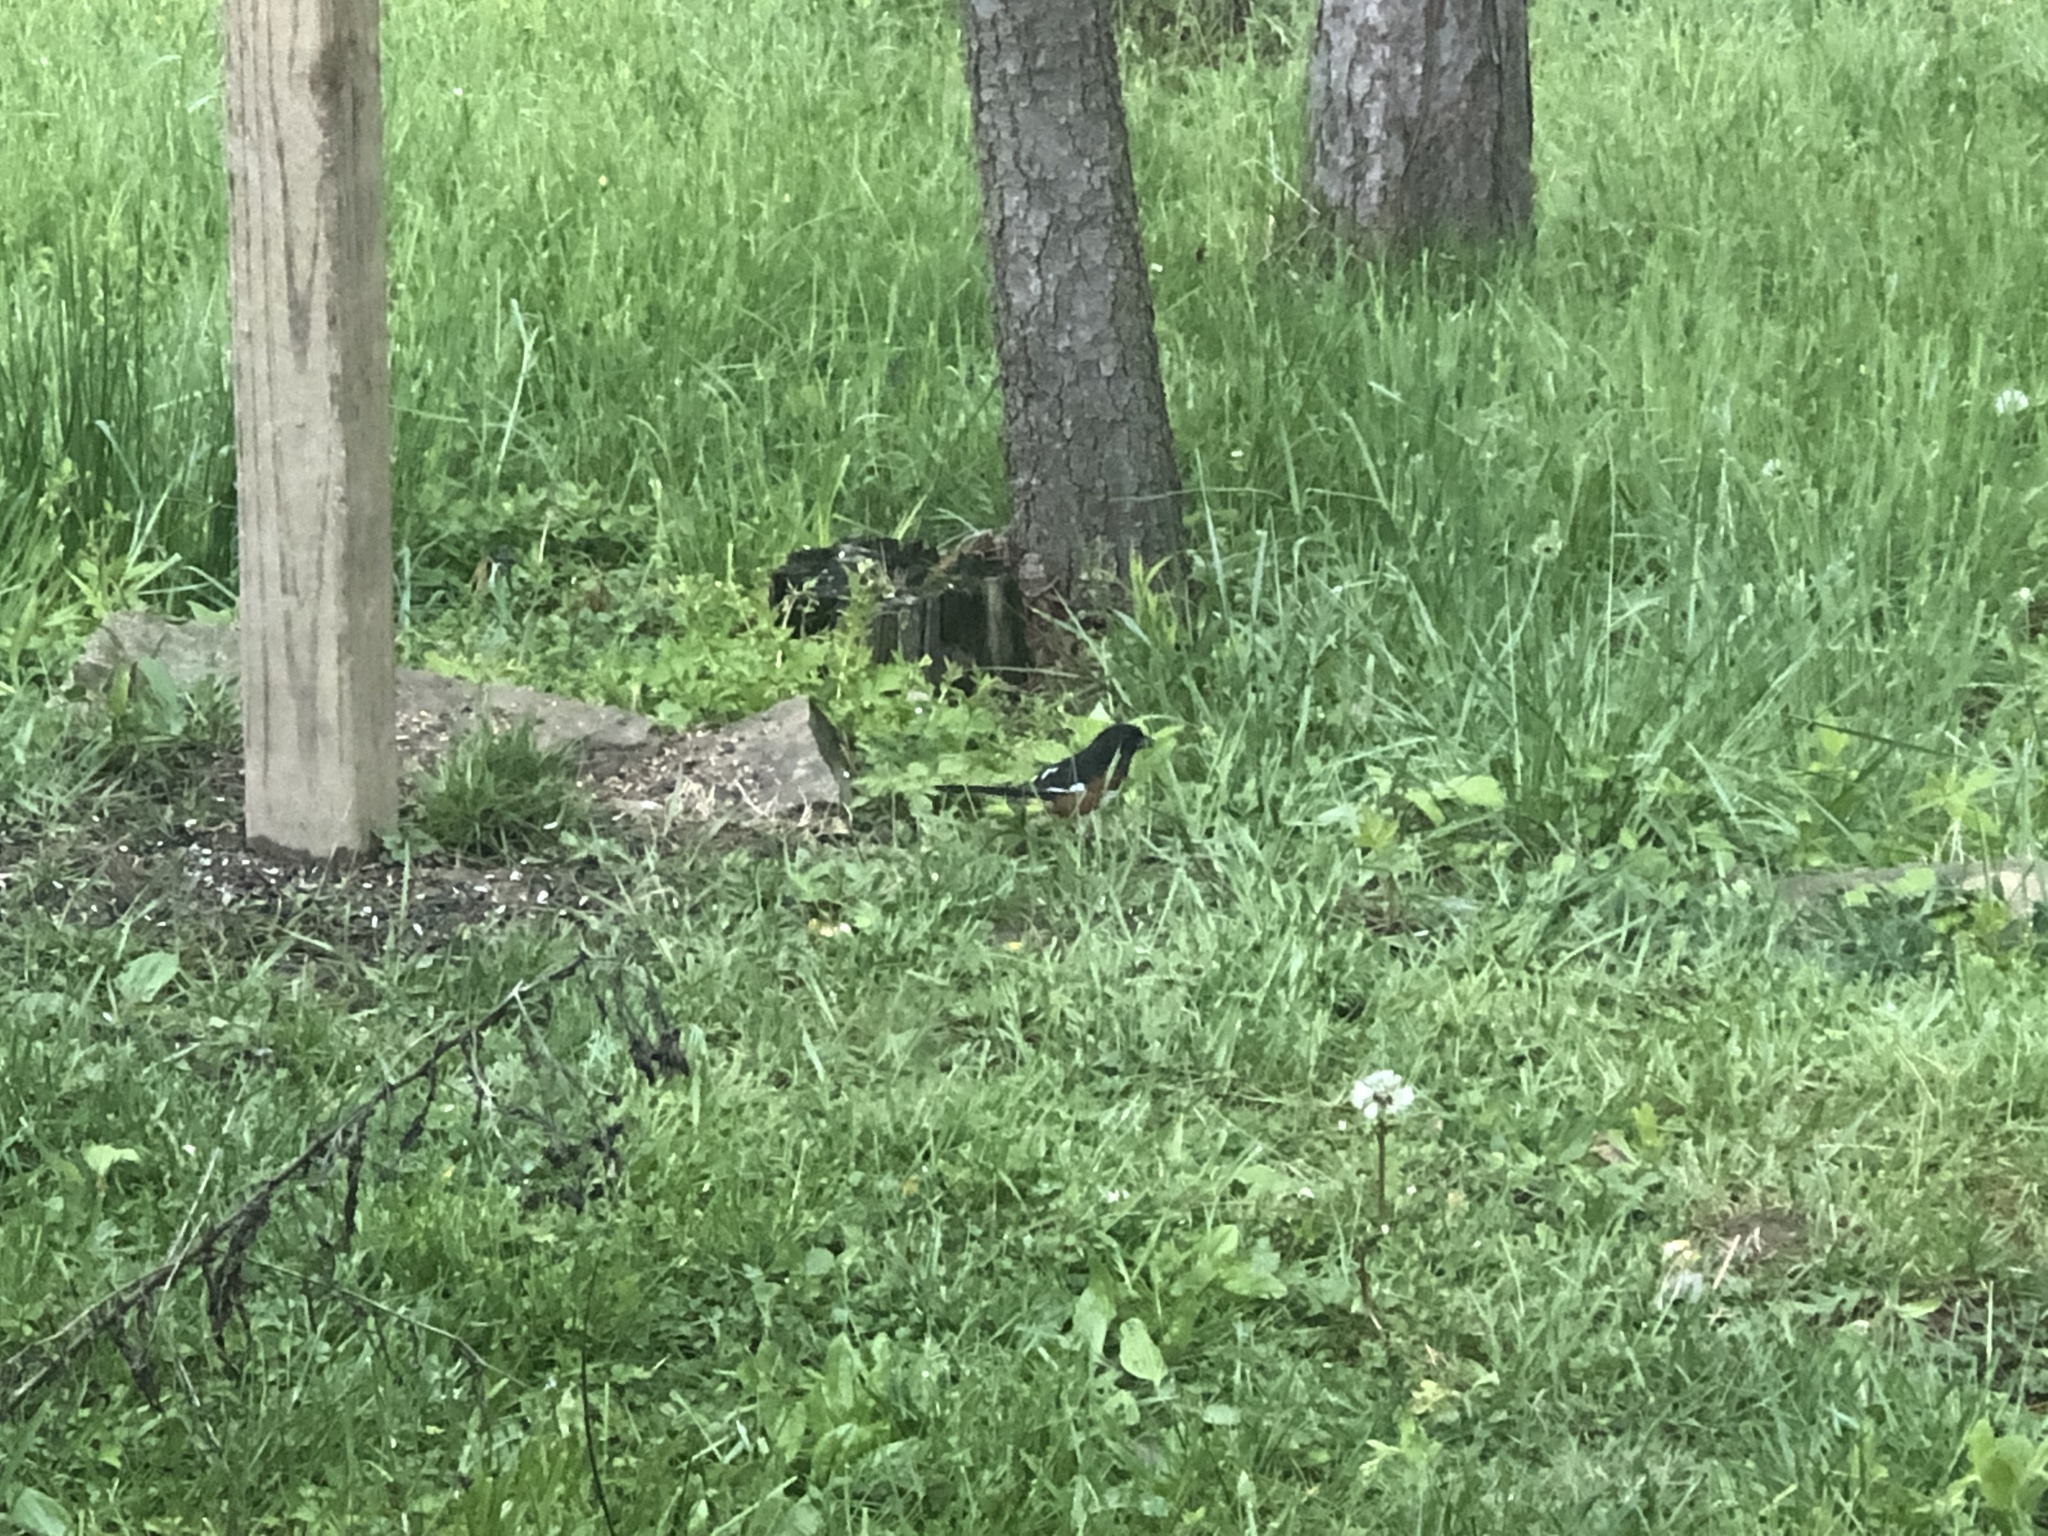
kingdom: Animalia
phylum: Chordata
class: Aves
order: Passeriformes
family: Passerellidae
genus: Pipilo
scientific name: Pipilo erythrophthalmus
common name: Eastern towhee
